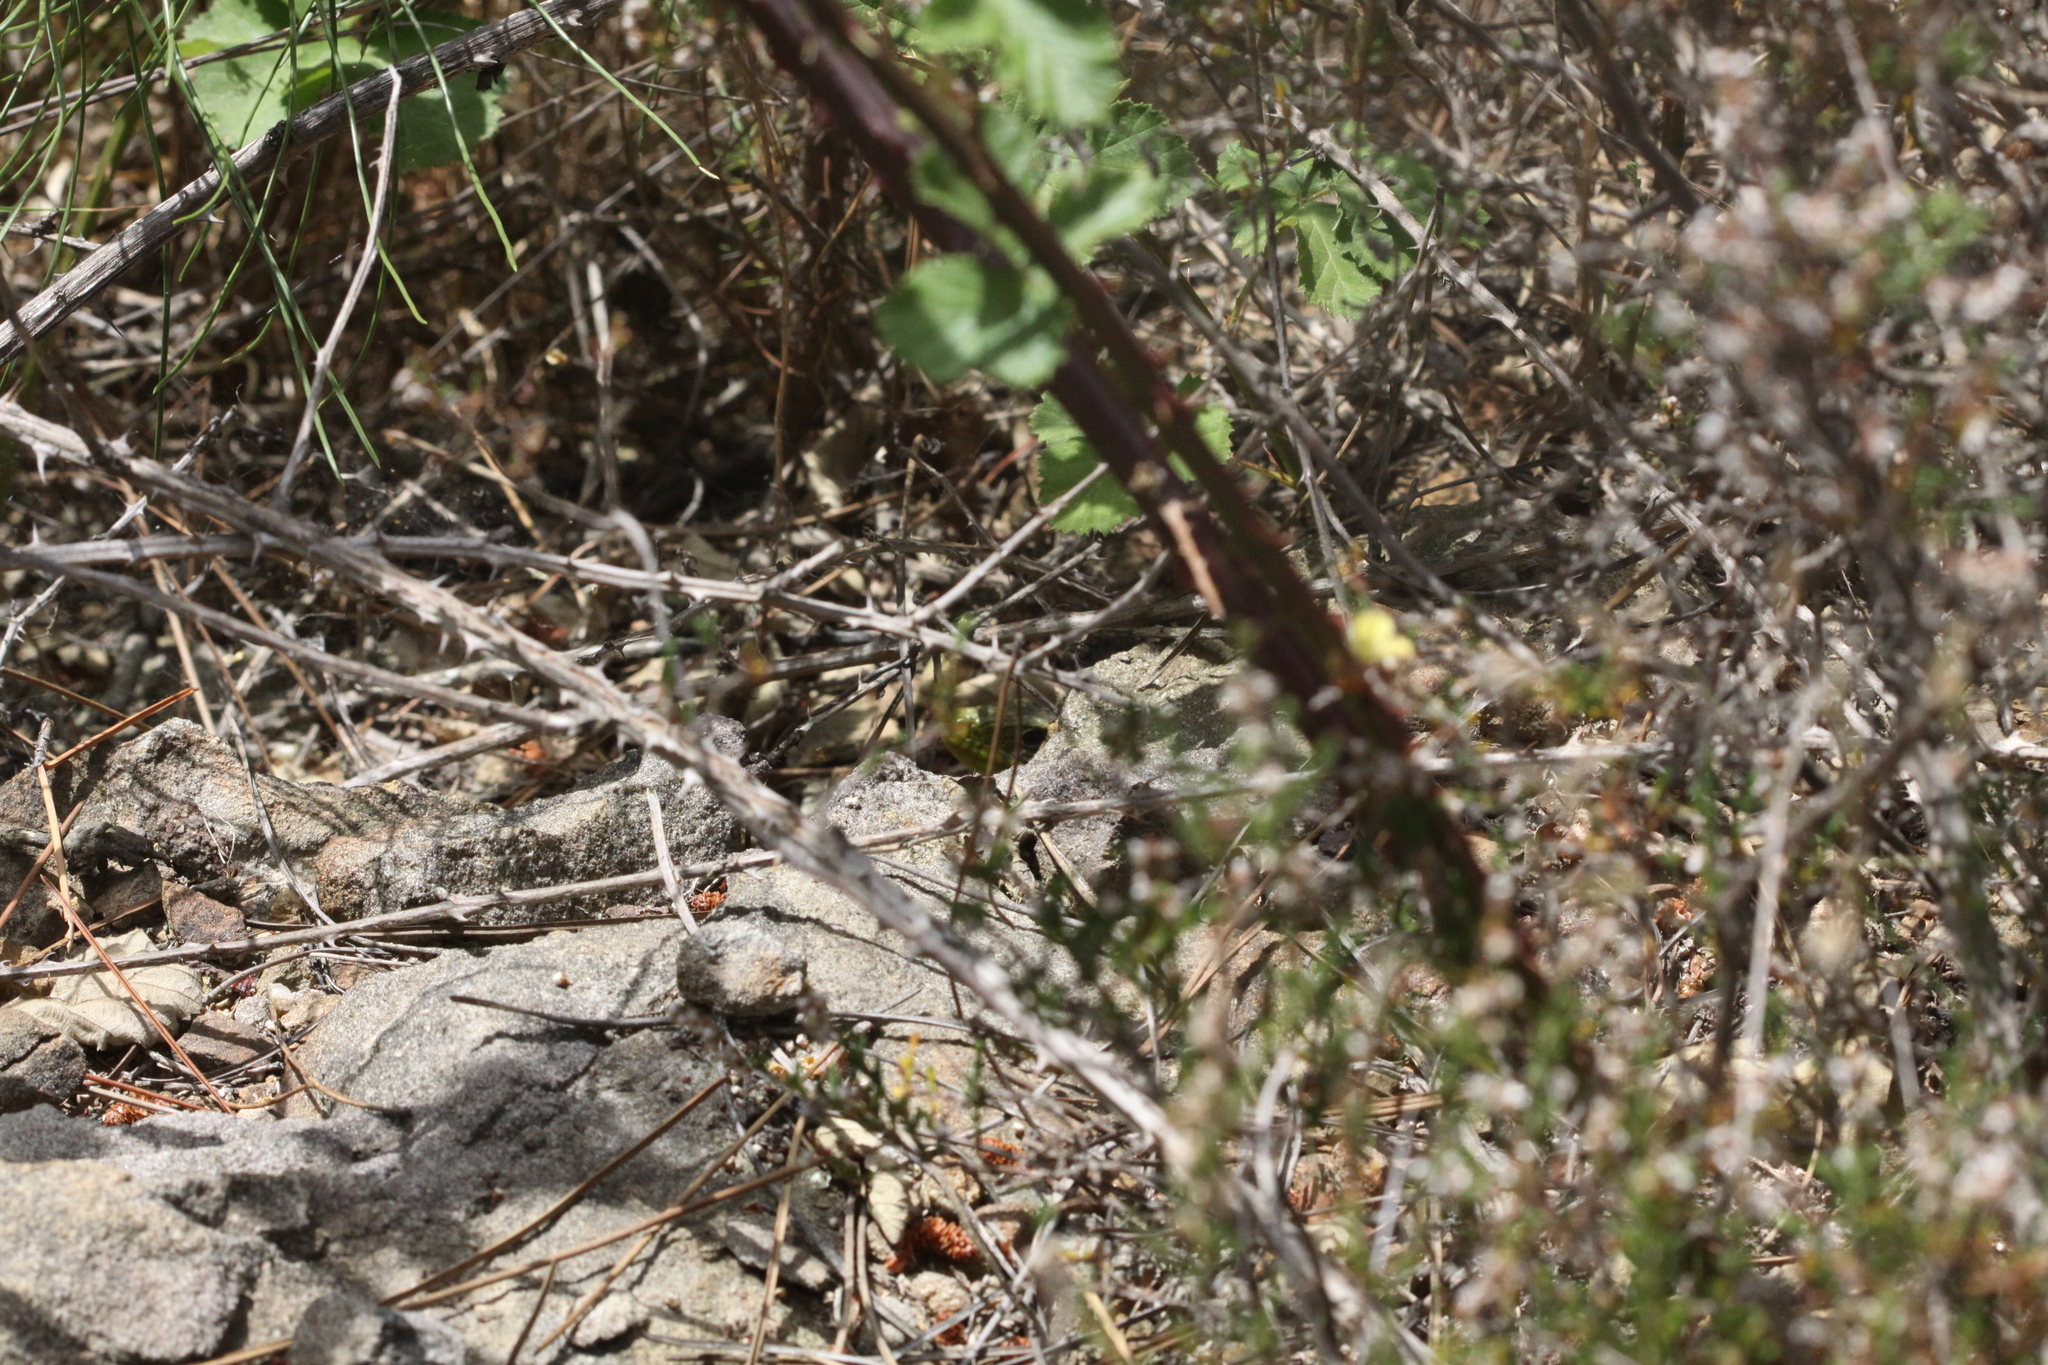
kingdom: Animalia
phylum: Chordata
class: Squamata
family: Lacertidae
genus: Timon
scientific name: Timon lepidus
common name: Ocellated lizard
